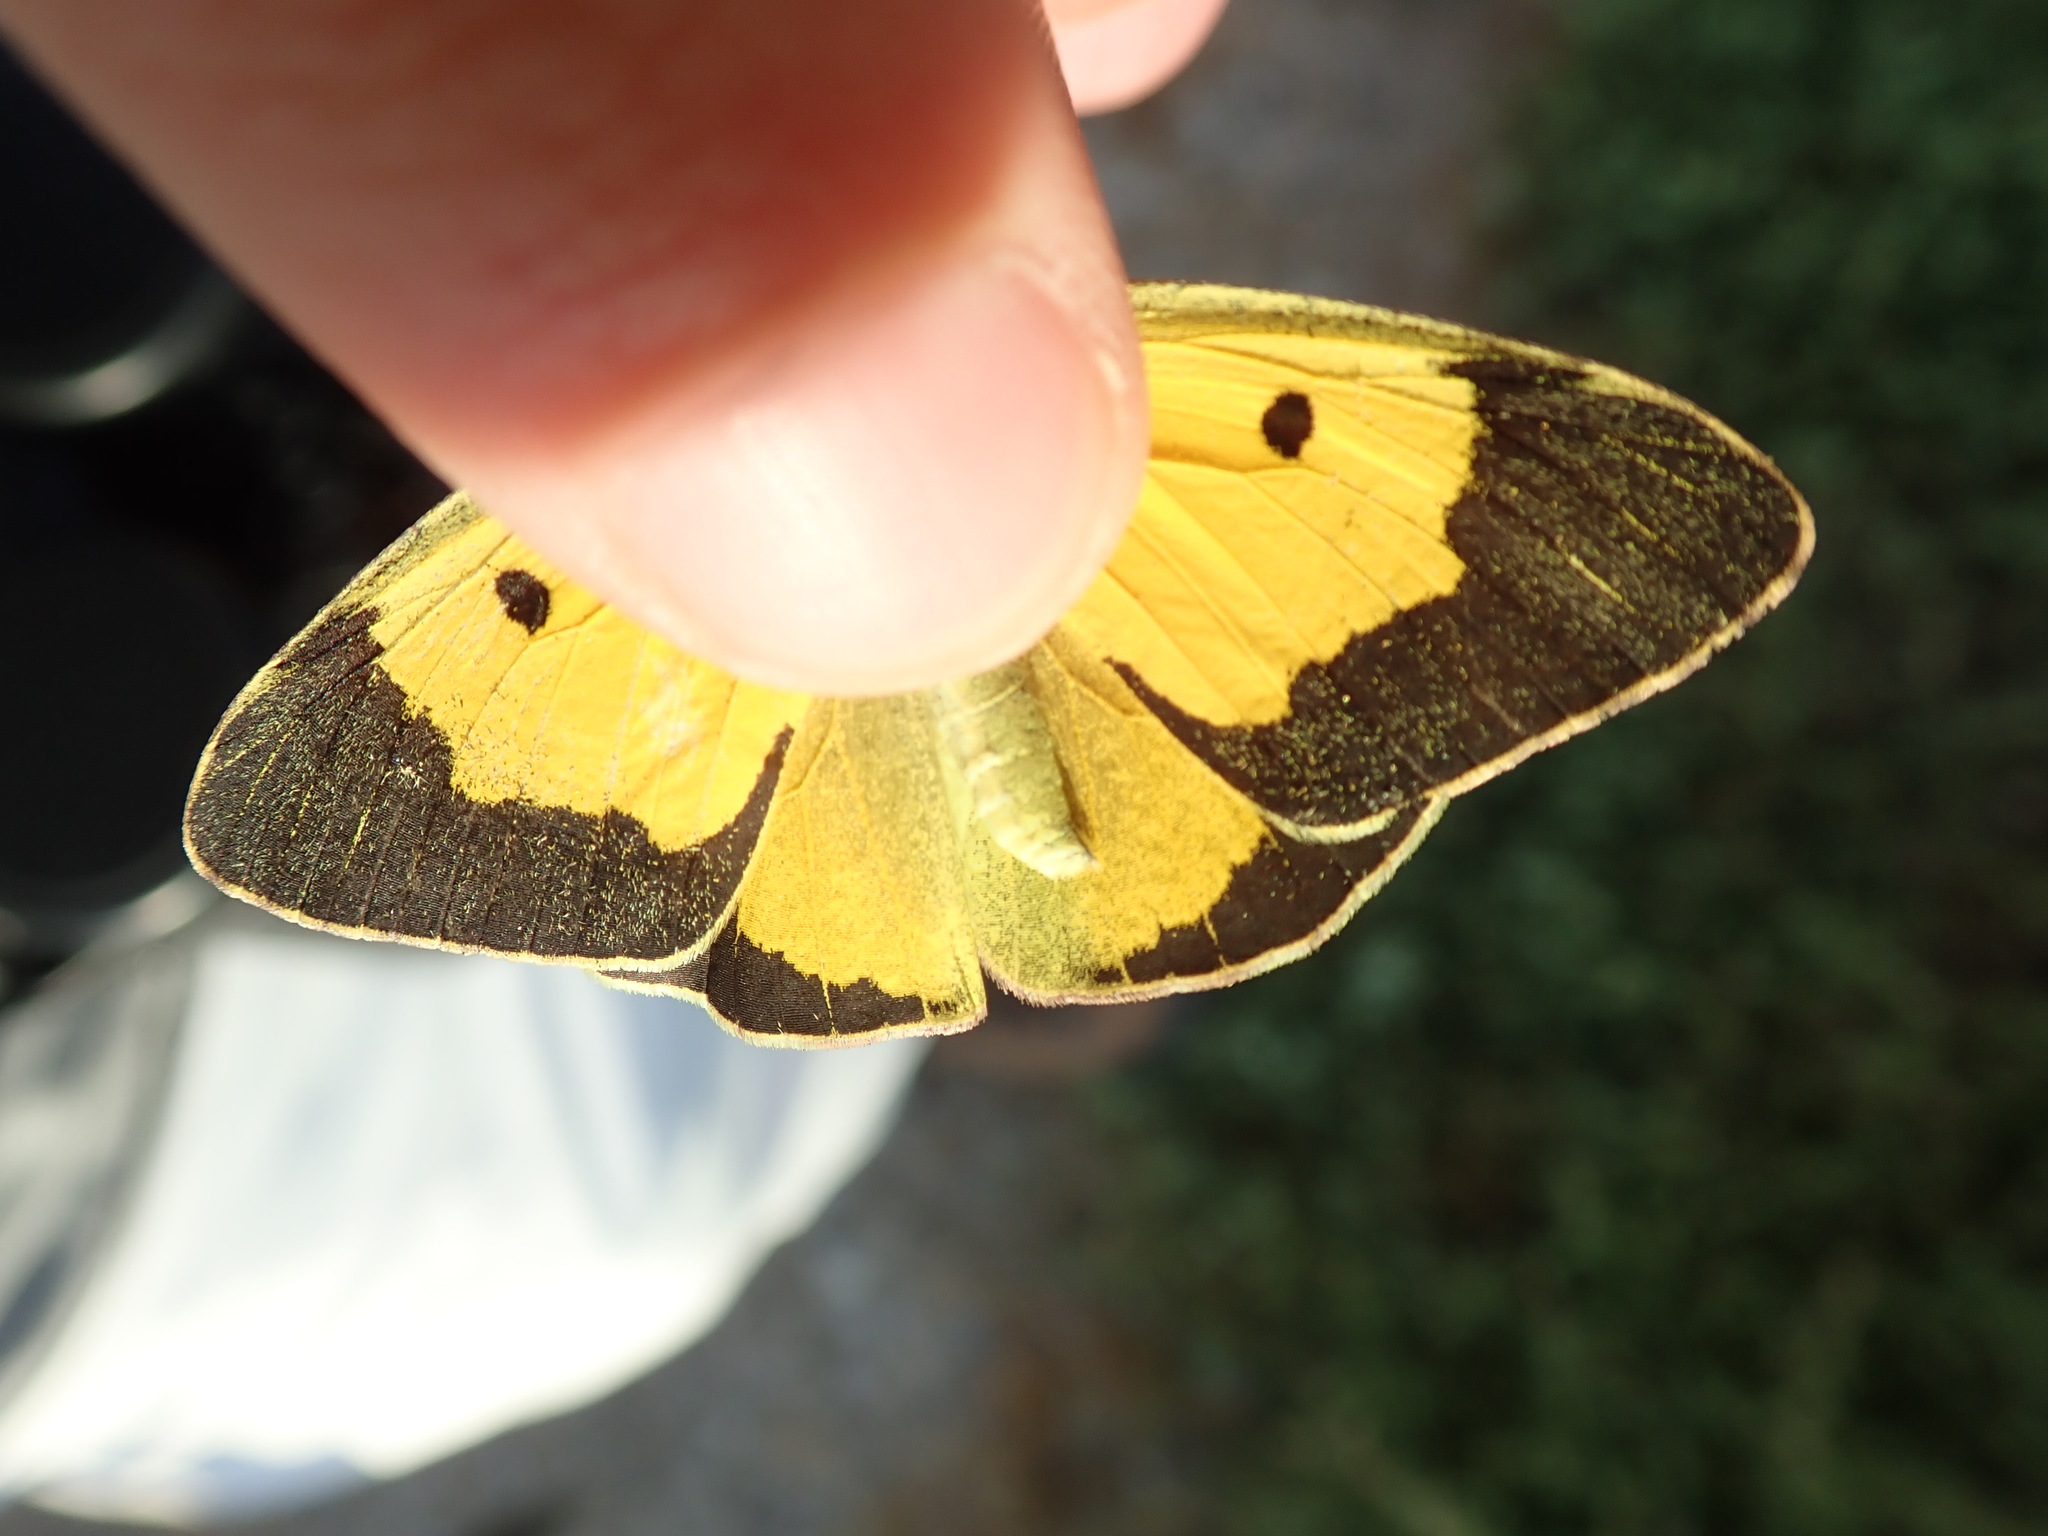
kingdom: Animalia
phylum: Arthropoda
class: Insecta
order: Lepidoptera
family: Pieridae
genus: Colias
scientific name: Colias croceus
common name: Clouded yellow
